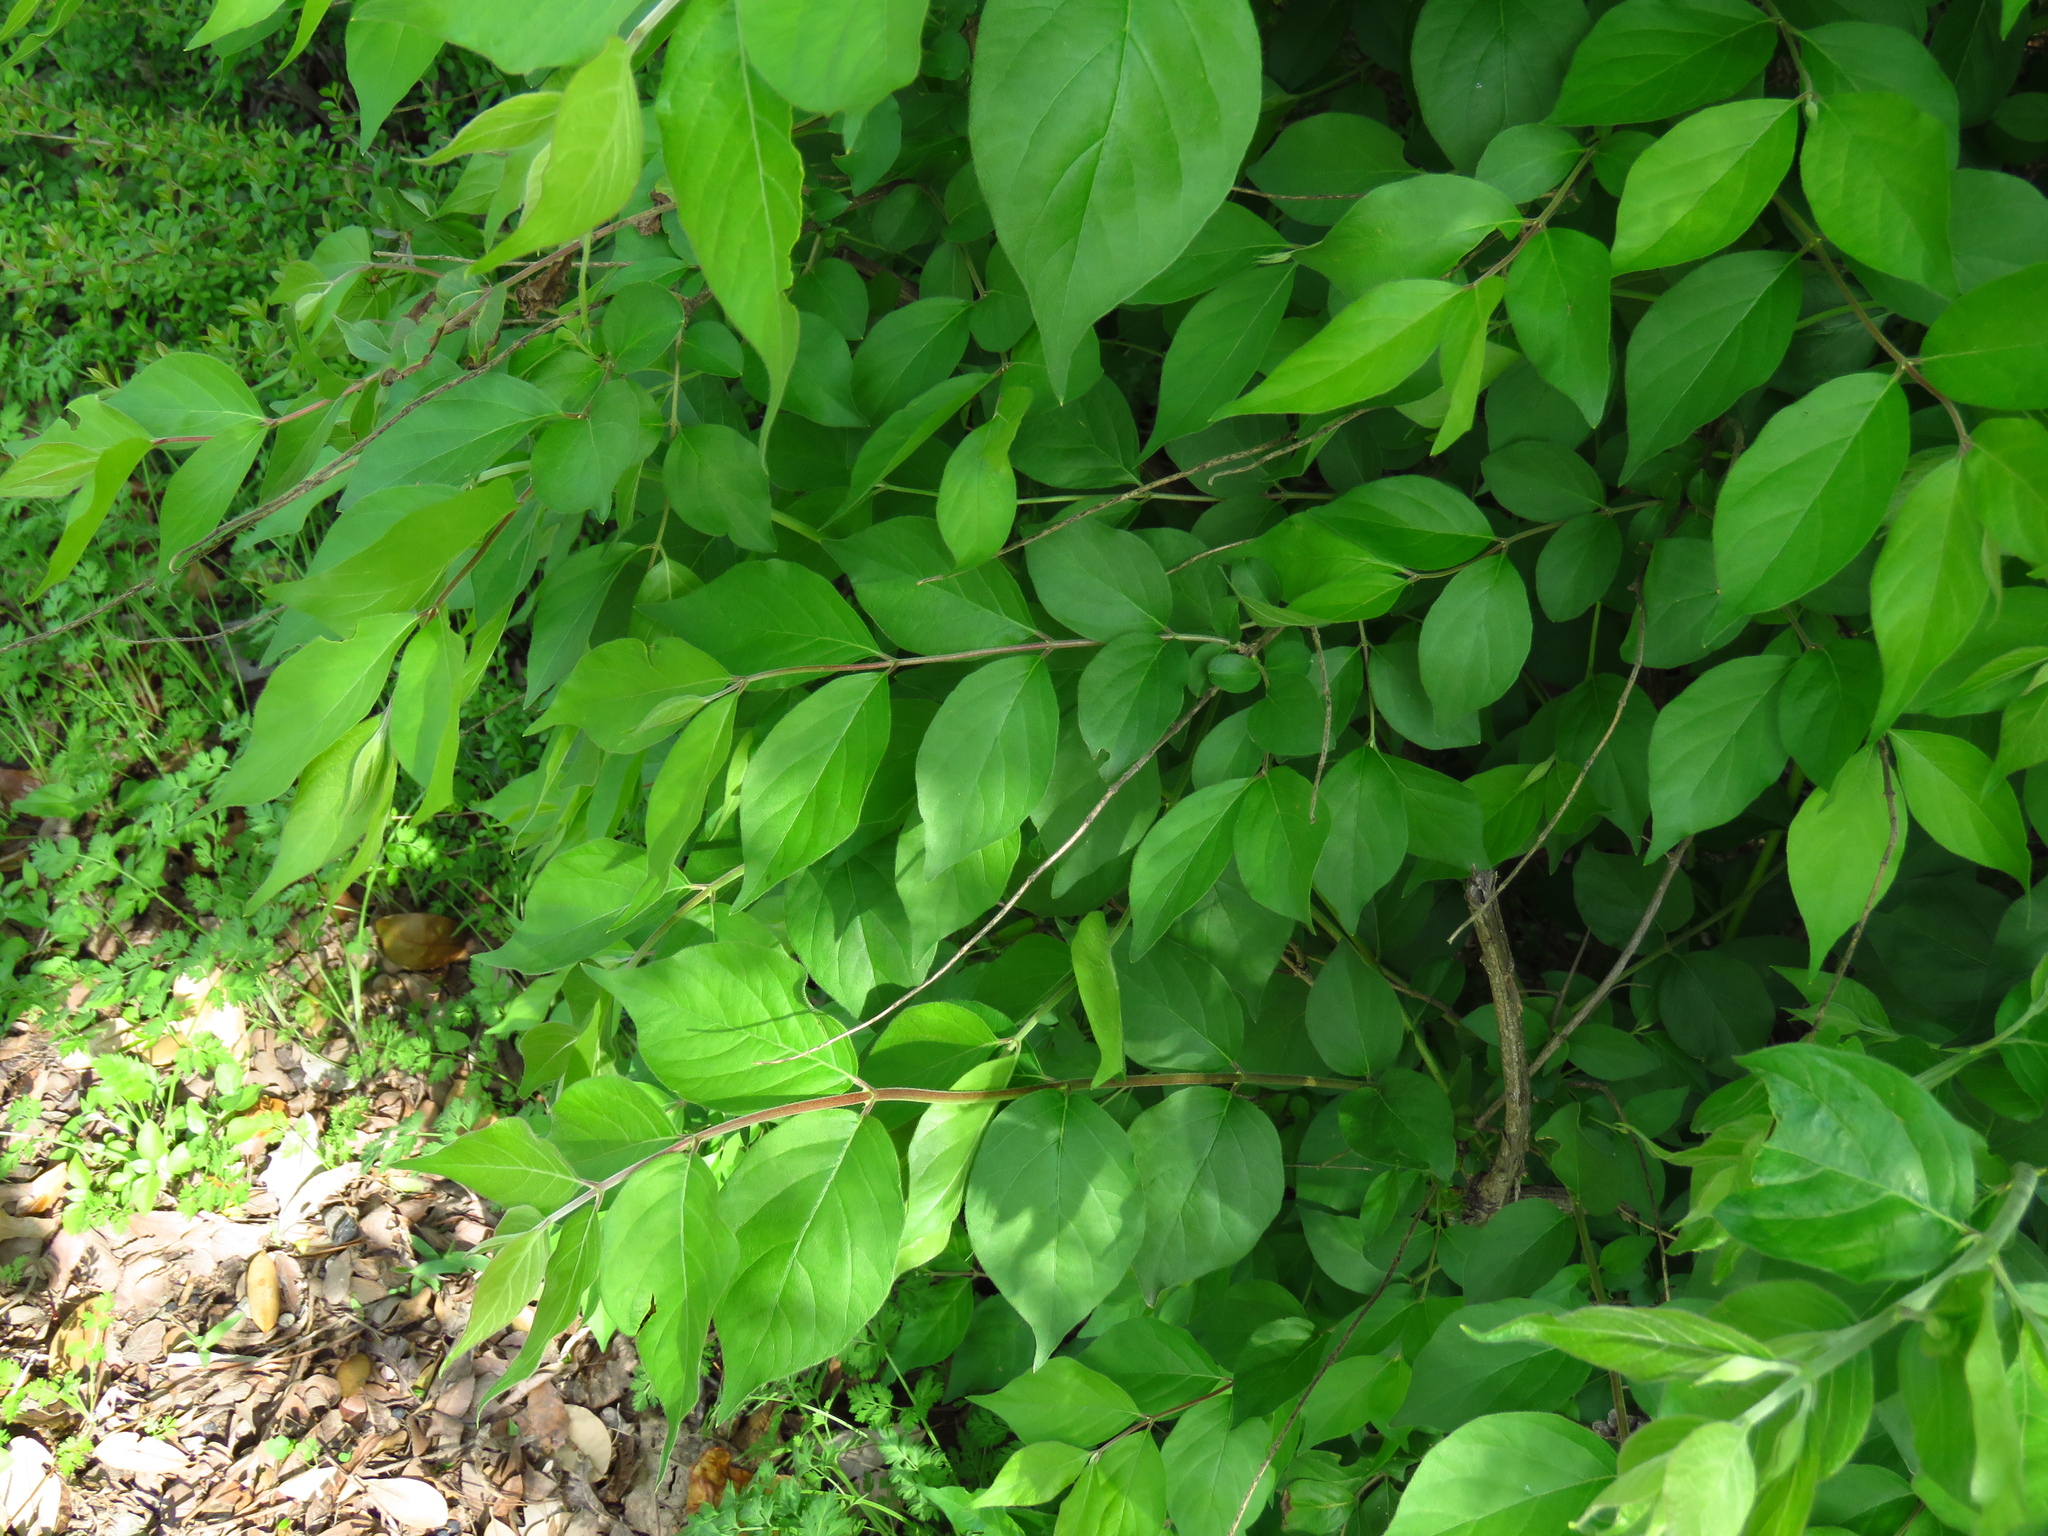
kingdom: Plantae
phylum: Tracheophyta
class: Magnoliopsida
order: Dipsacales
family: Caprifoliaceae
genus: Lonicera
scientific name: Lonicera maackii
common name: Amur honeysuckle
